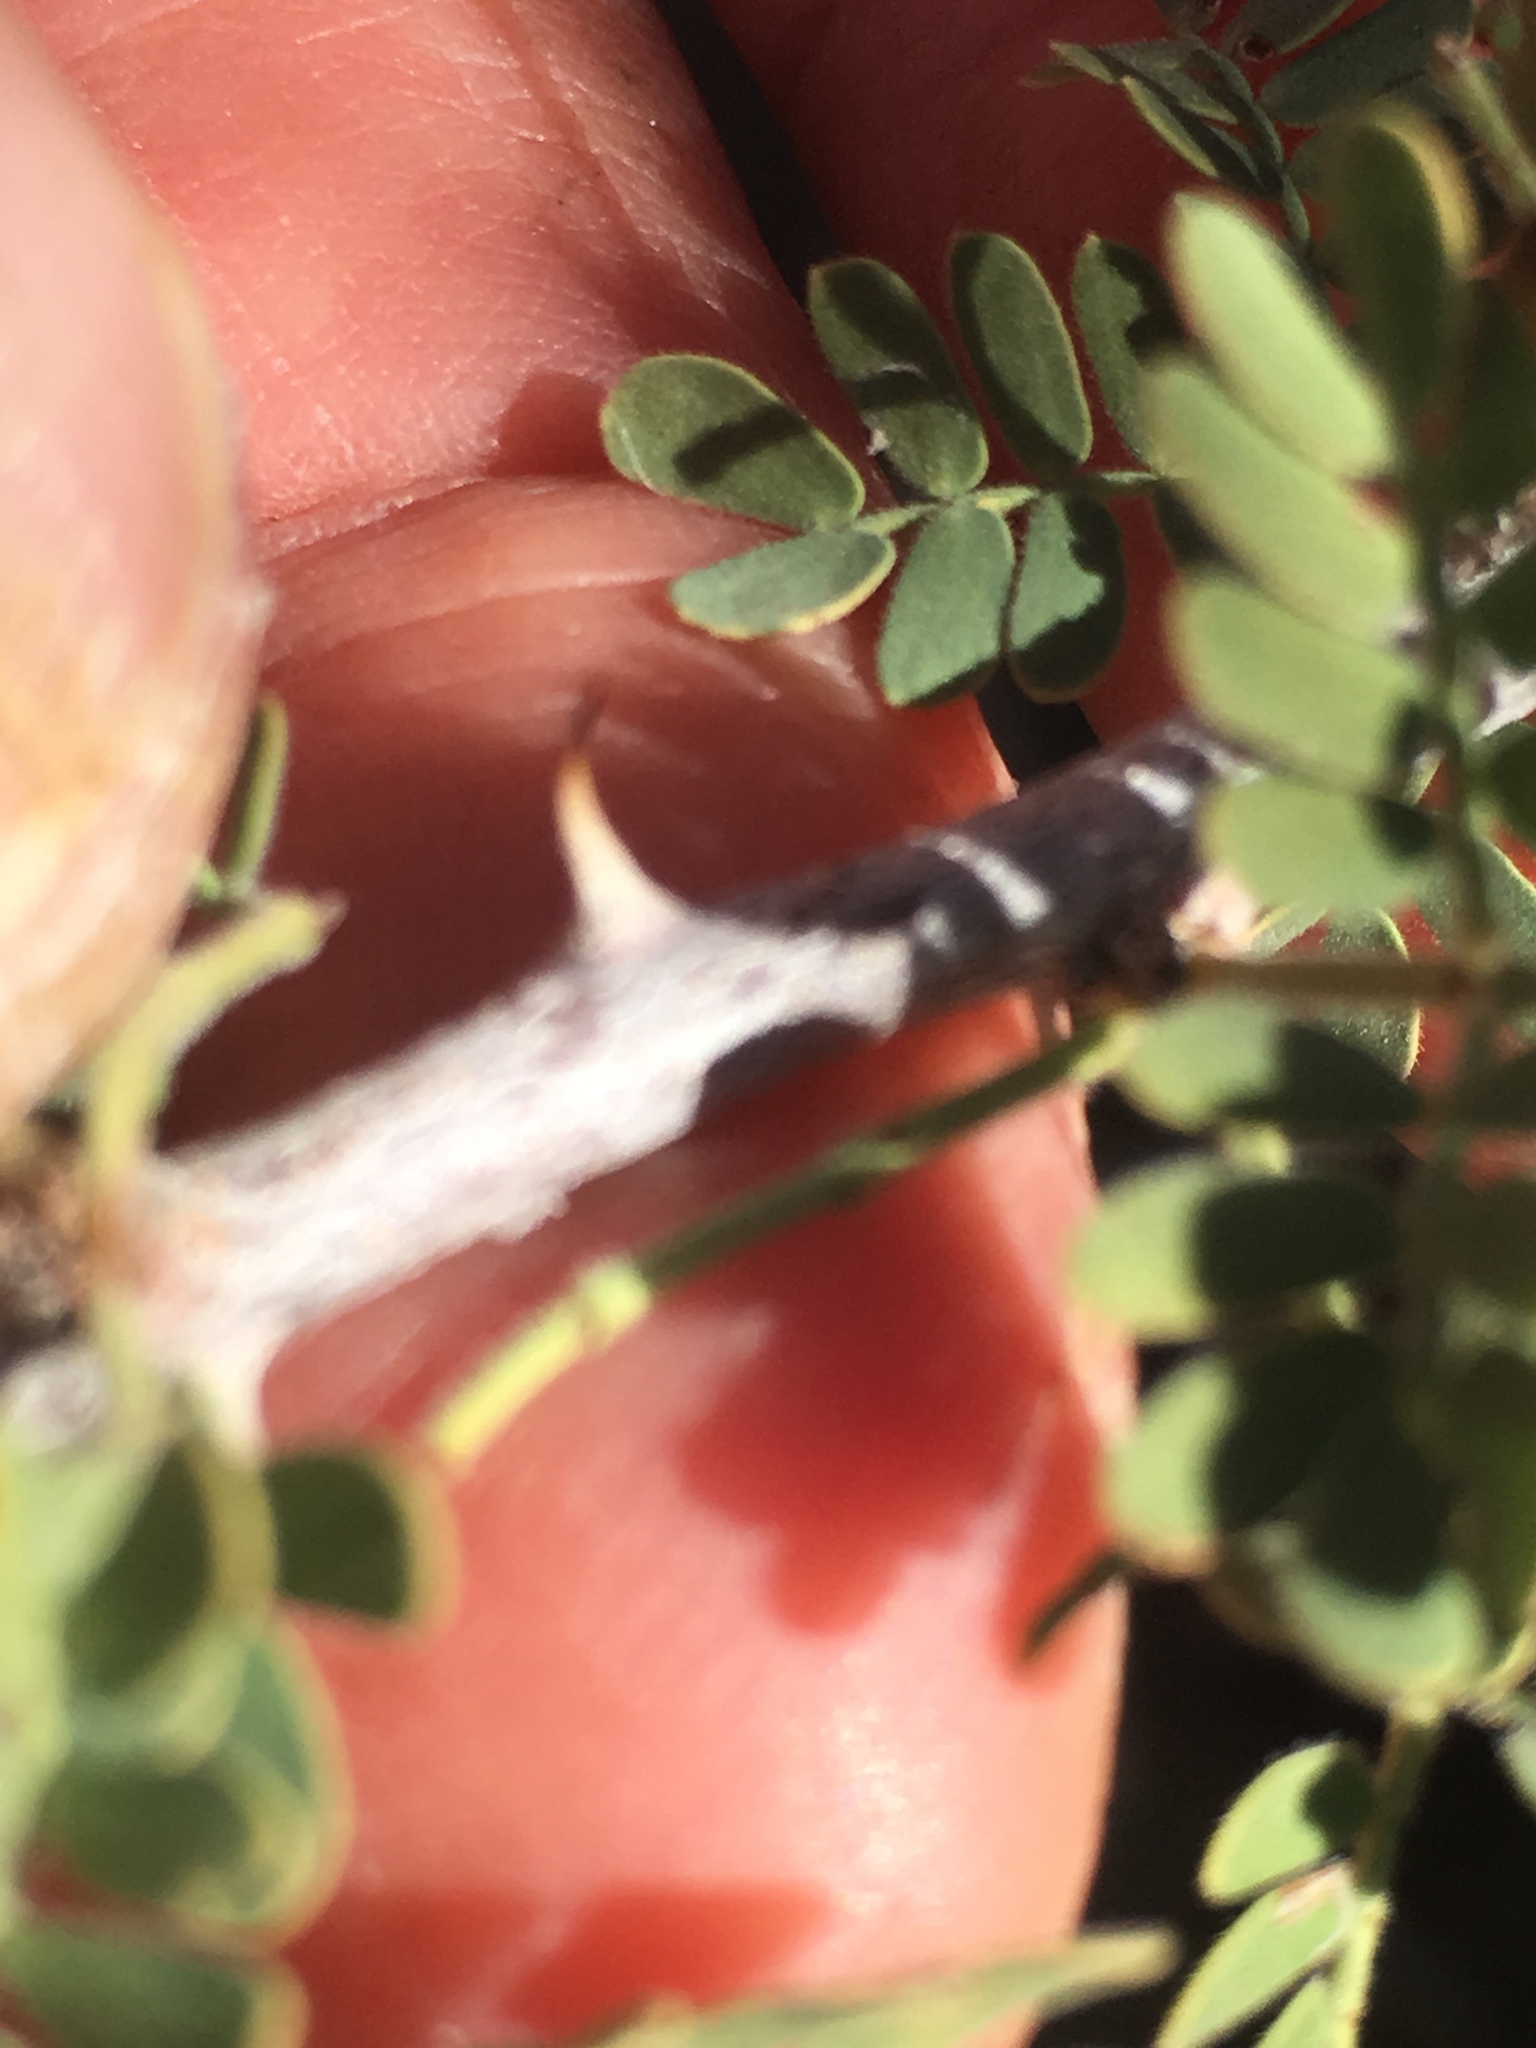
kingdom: Plantae
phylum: Tracheophyta
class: Magnoliopsida
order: Fabales
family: Fabaceae
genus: Senegalia
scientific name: Senegalia greggii
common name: Texas-mimosa
